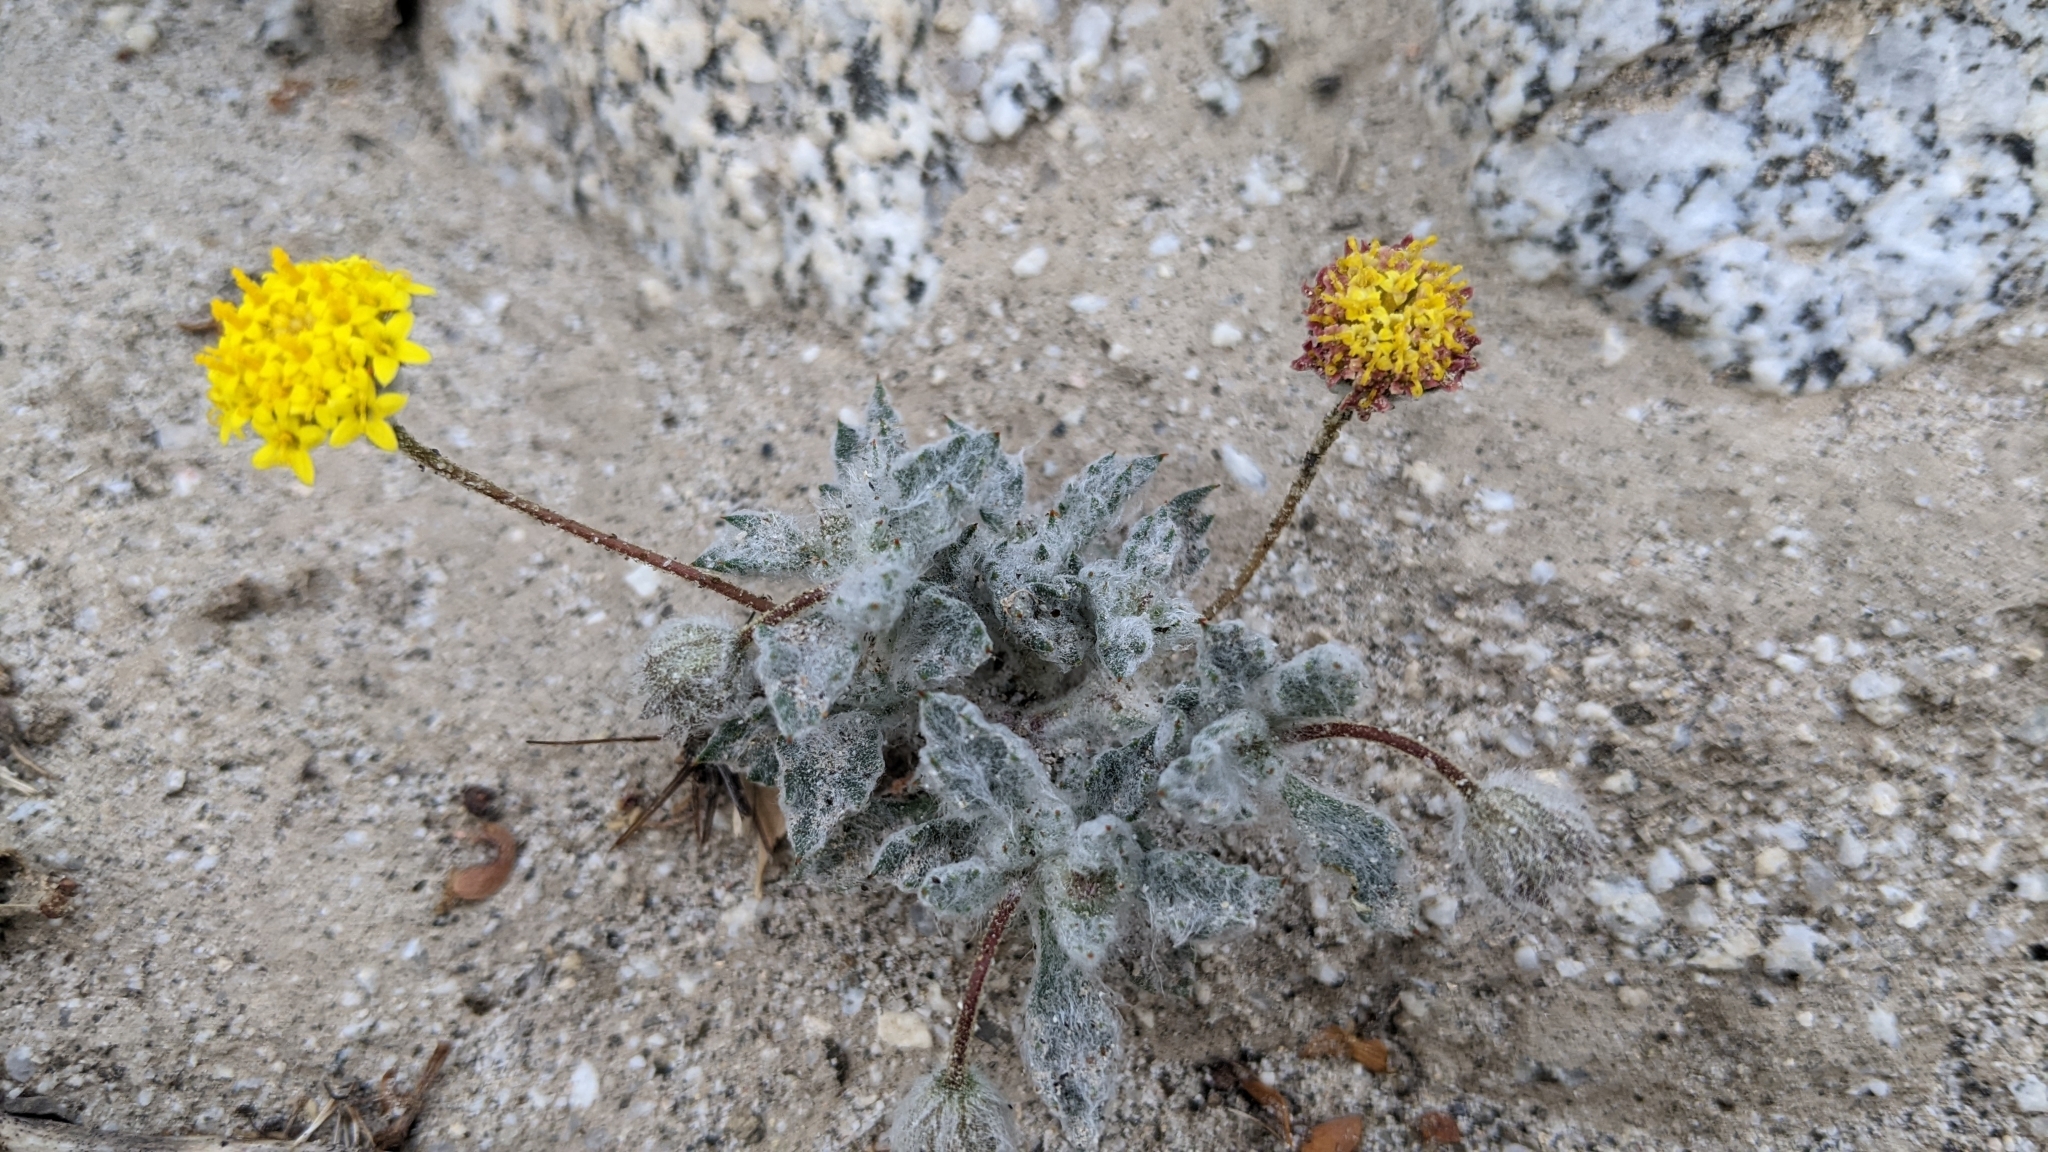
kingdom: Plantae
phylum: Tracheophyta
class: Magnoliopsida
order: Asterales
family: Asteraceae
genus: Trichoptilium
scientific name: Trichoptilium incisum
